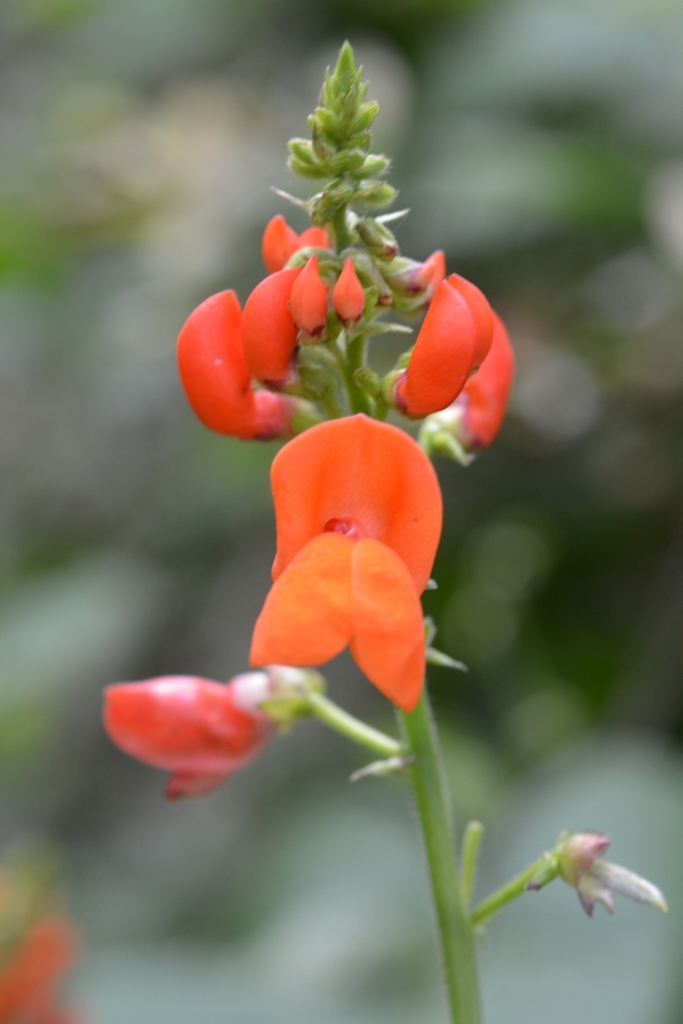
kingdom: Plantae
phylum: Tracheophyta
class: Magnoliopsida
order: Fabales
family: Fabaceae
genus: Phaseolus
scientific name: Phaseolus coccineus
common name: Runner bean
